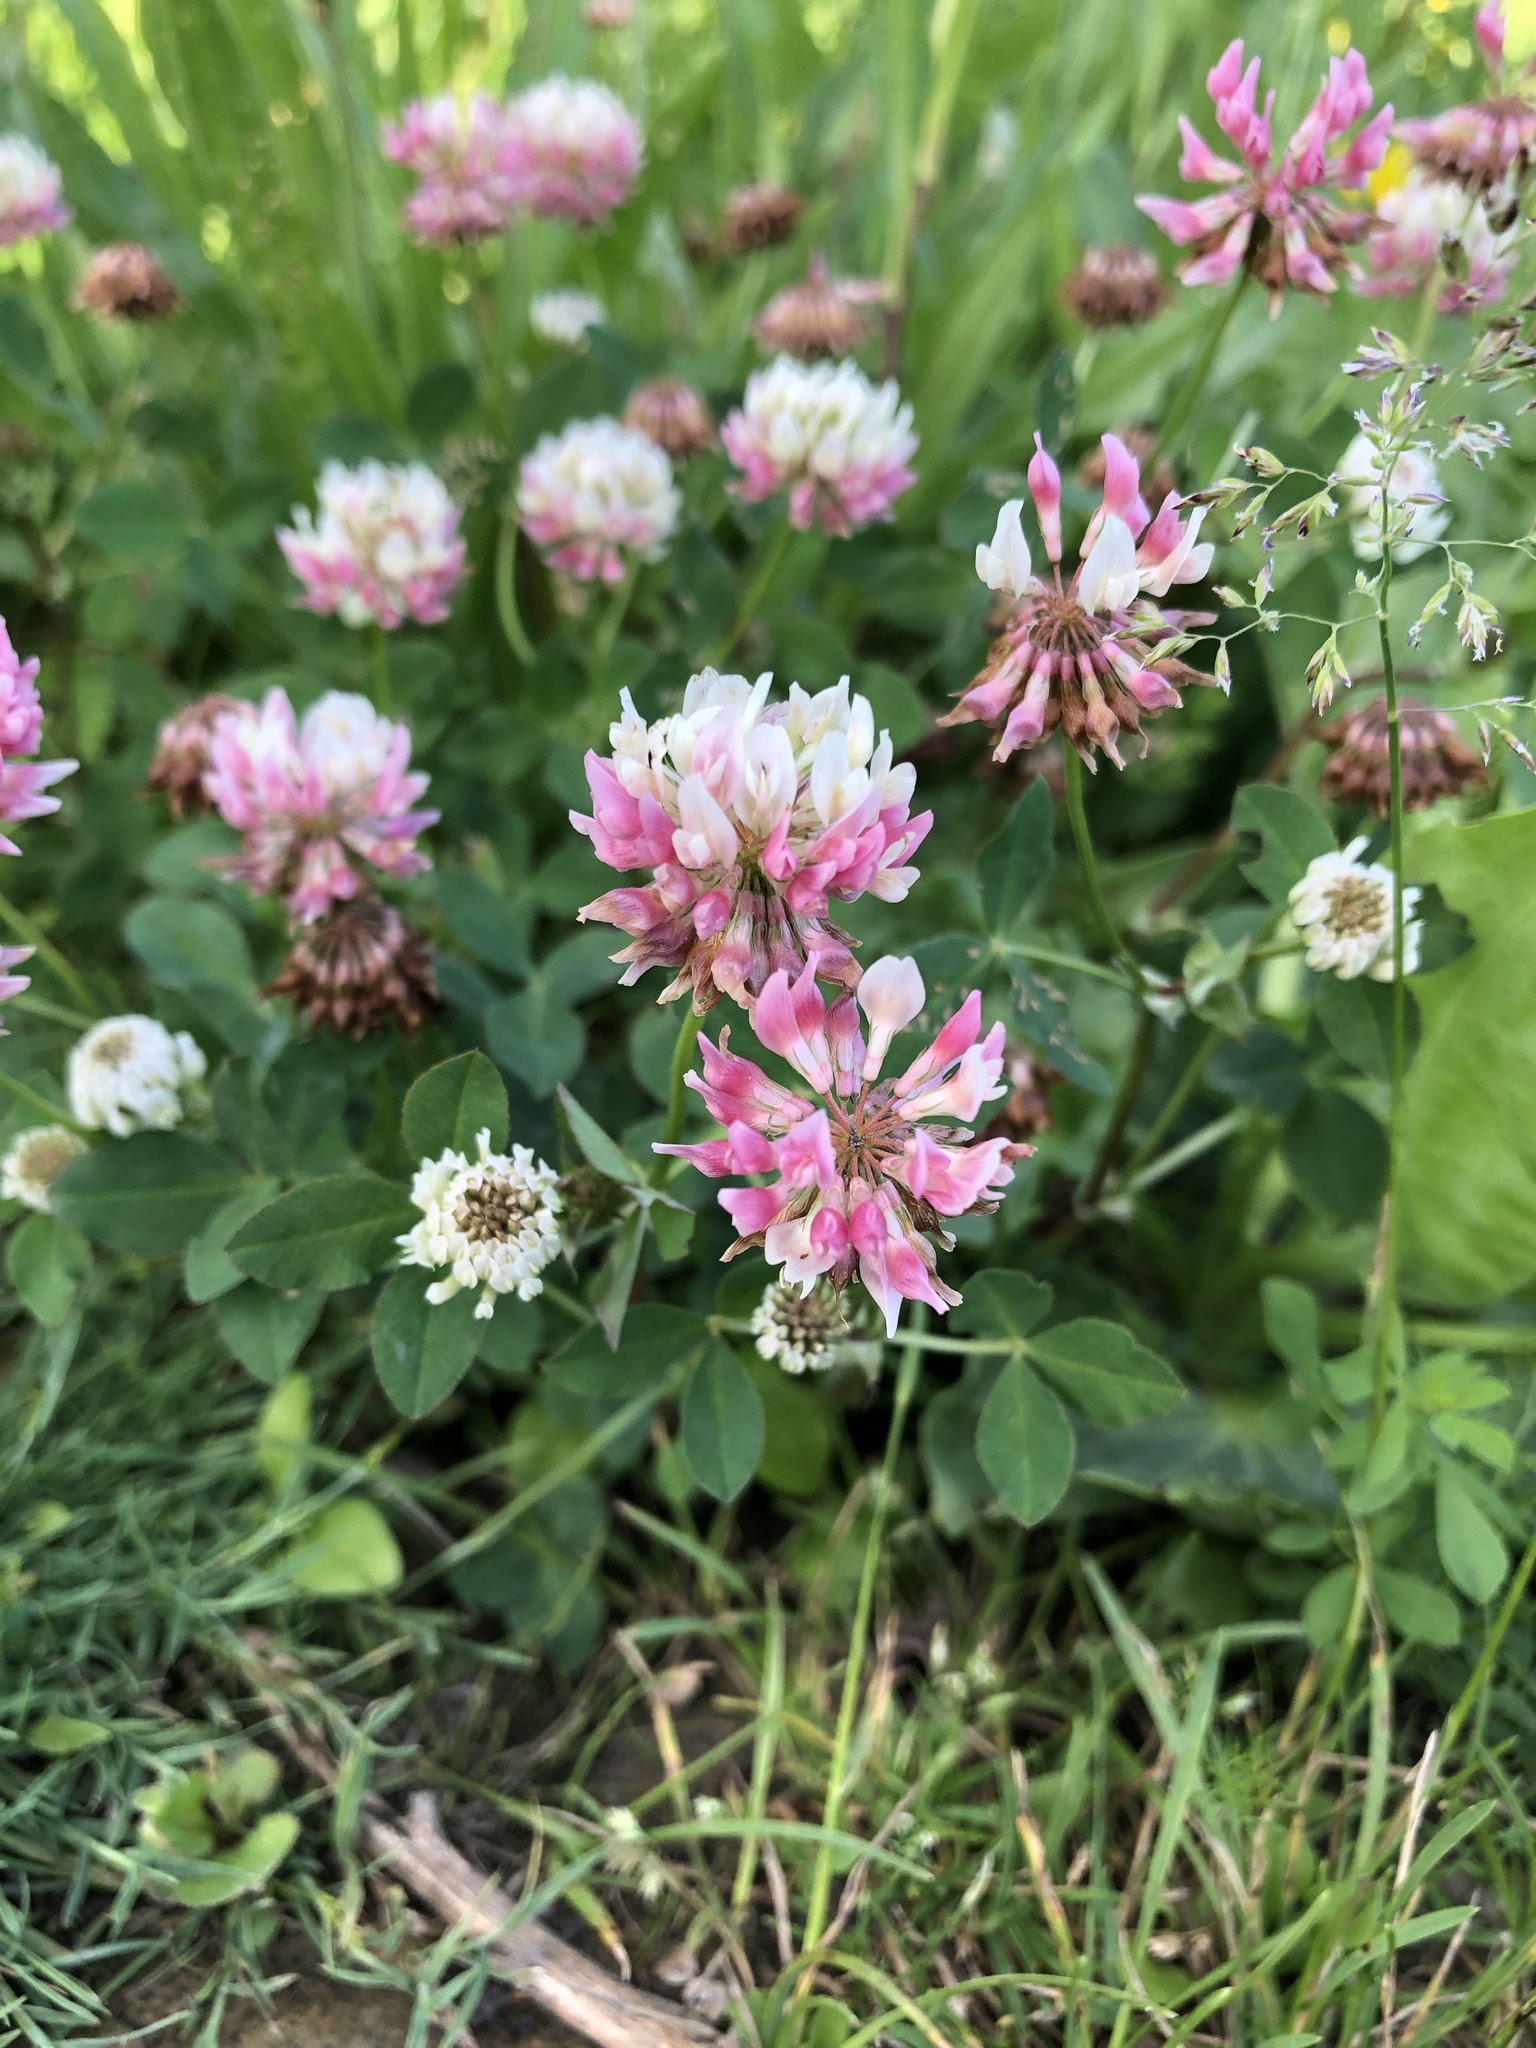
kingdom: Plantae
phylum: Tracheophyta
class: Magnoliopsida
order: Fabales
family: Fabaceae
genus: Trifolium
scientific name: Trifolium hybridum
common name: Alsike clover
